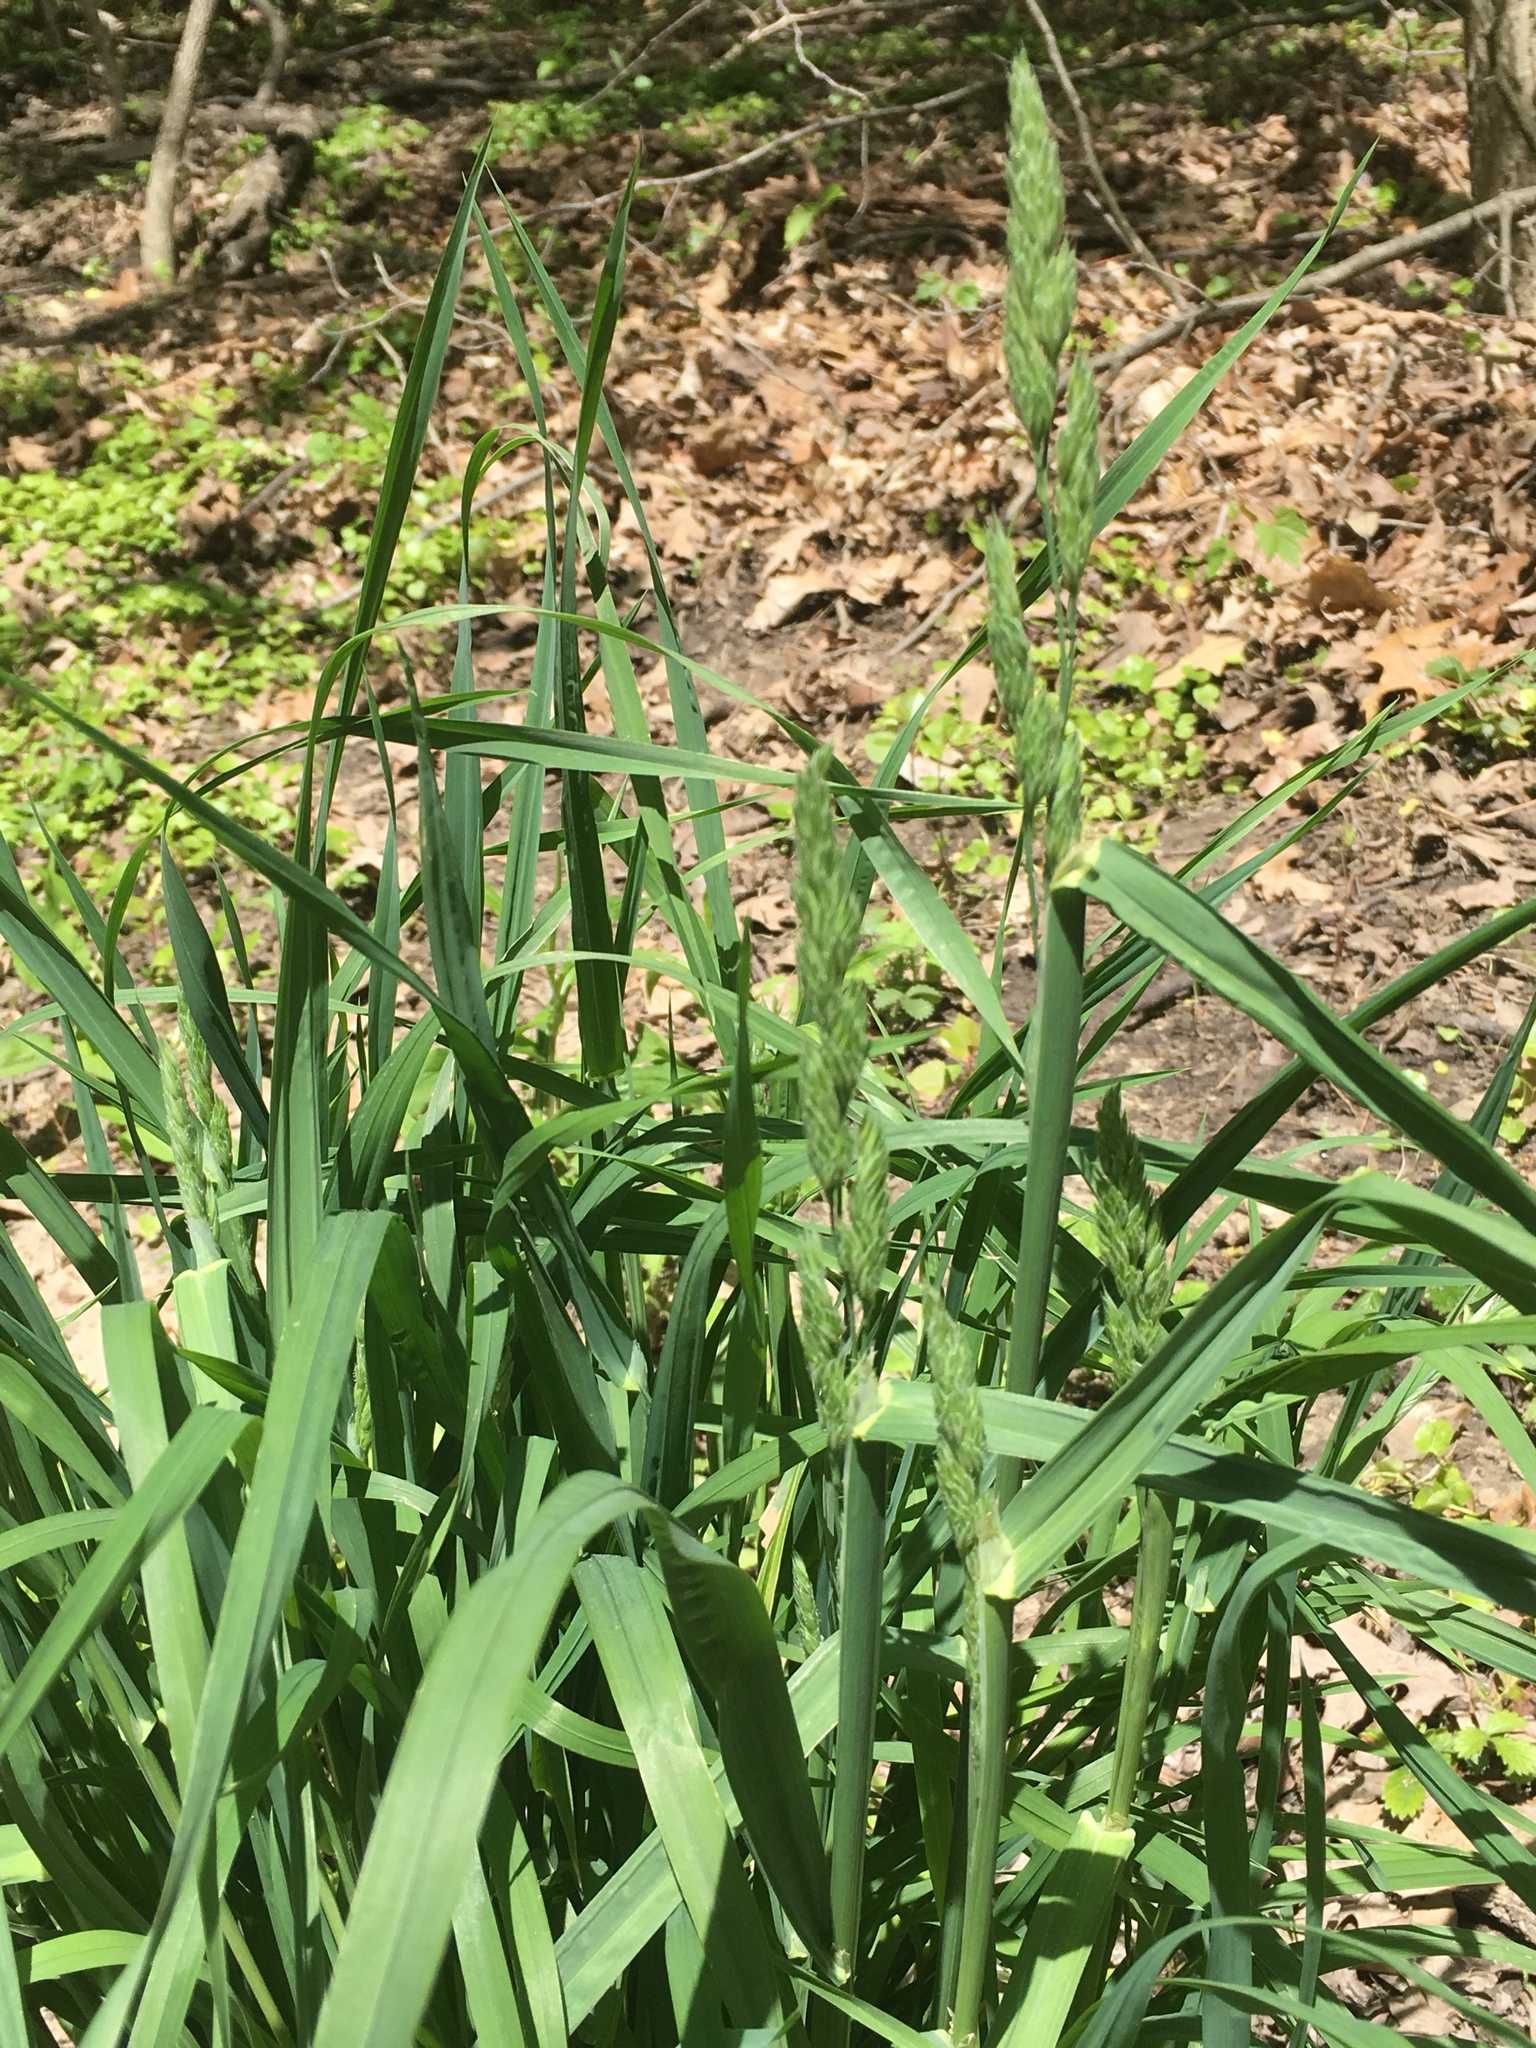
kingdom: Plantae
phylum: Tracheophyta
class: Liliopsida
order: Poales
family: Poaceae
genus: Dactylis
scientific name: Dactylis glomerata
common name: Orchardgrass
